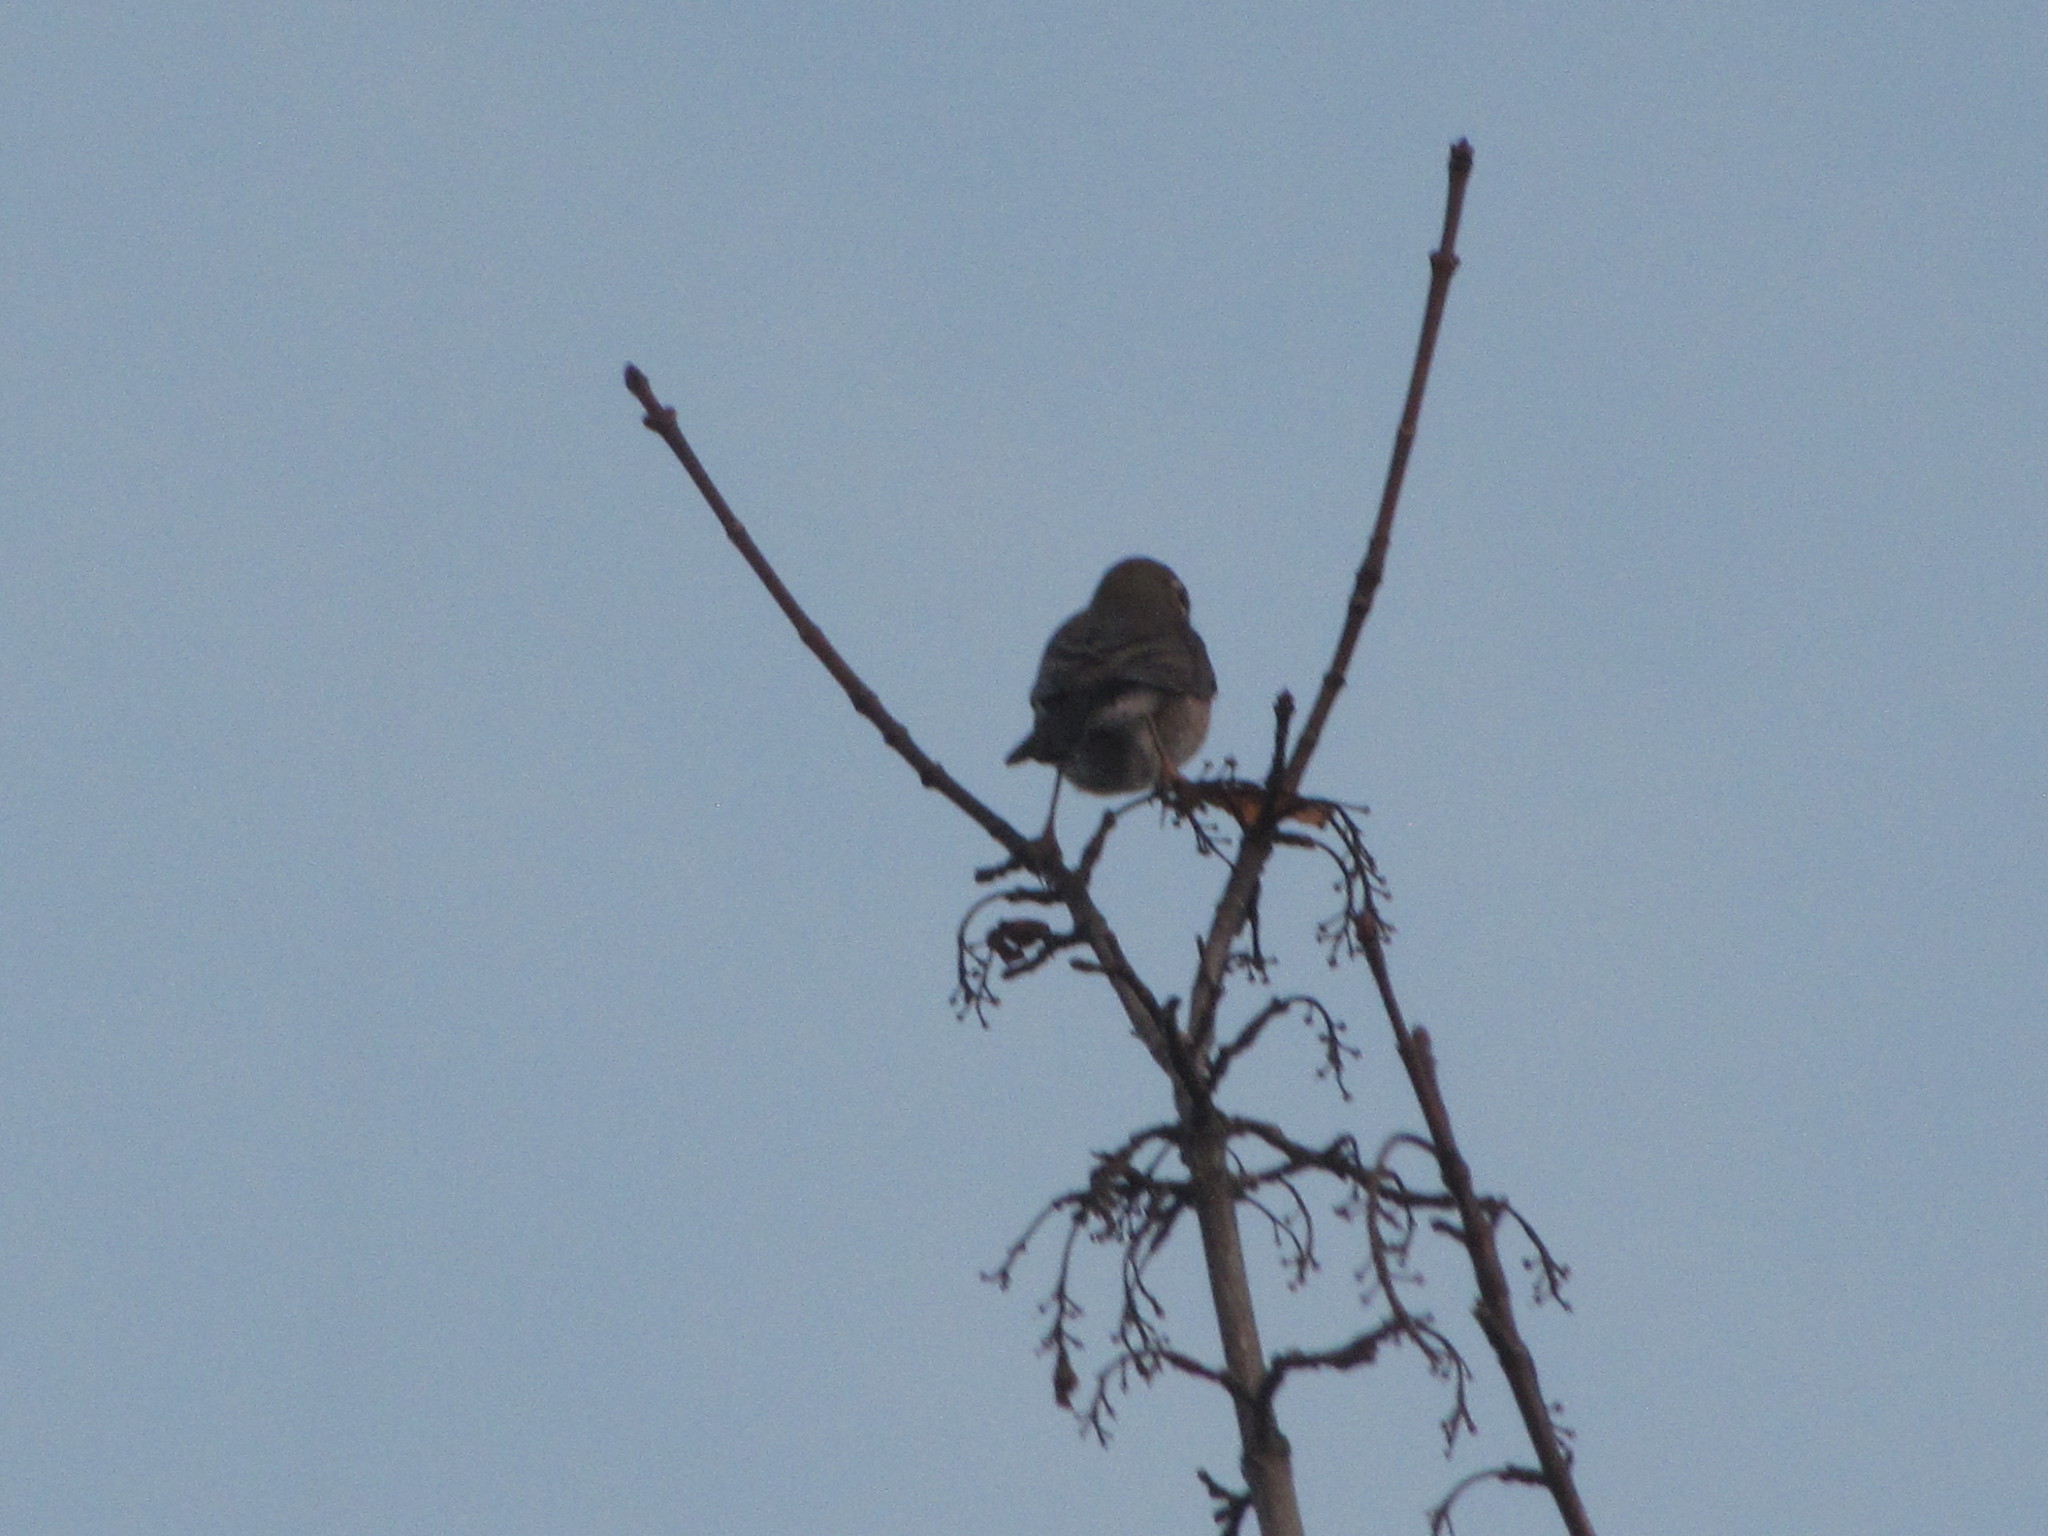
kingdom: Animalia
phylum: Chordata
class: Aves
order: Passeriformes
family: Turdidae
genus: Turdus
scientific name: Turdus migratorius
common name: American robin
